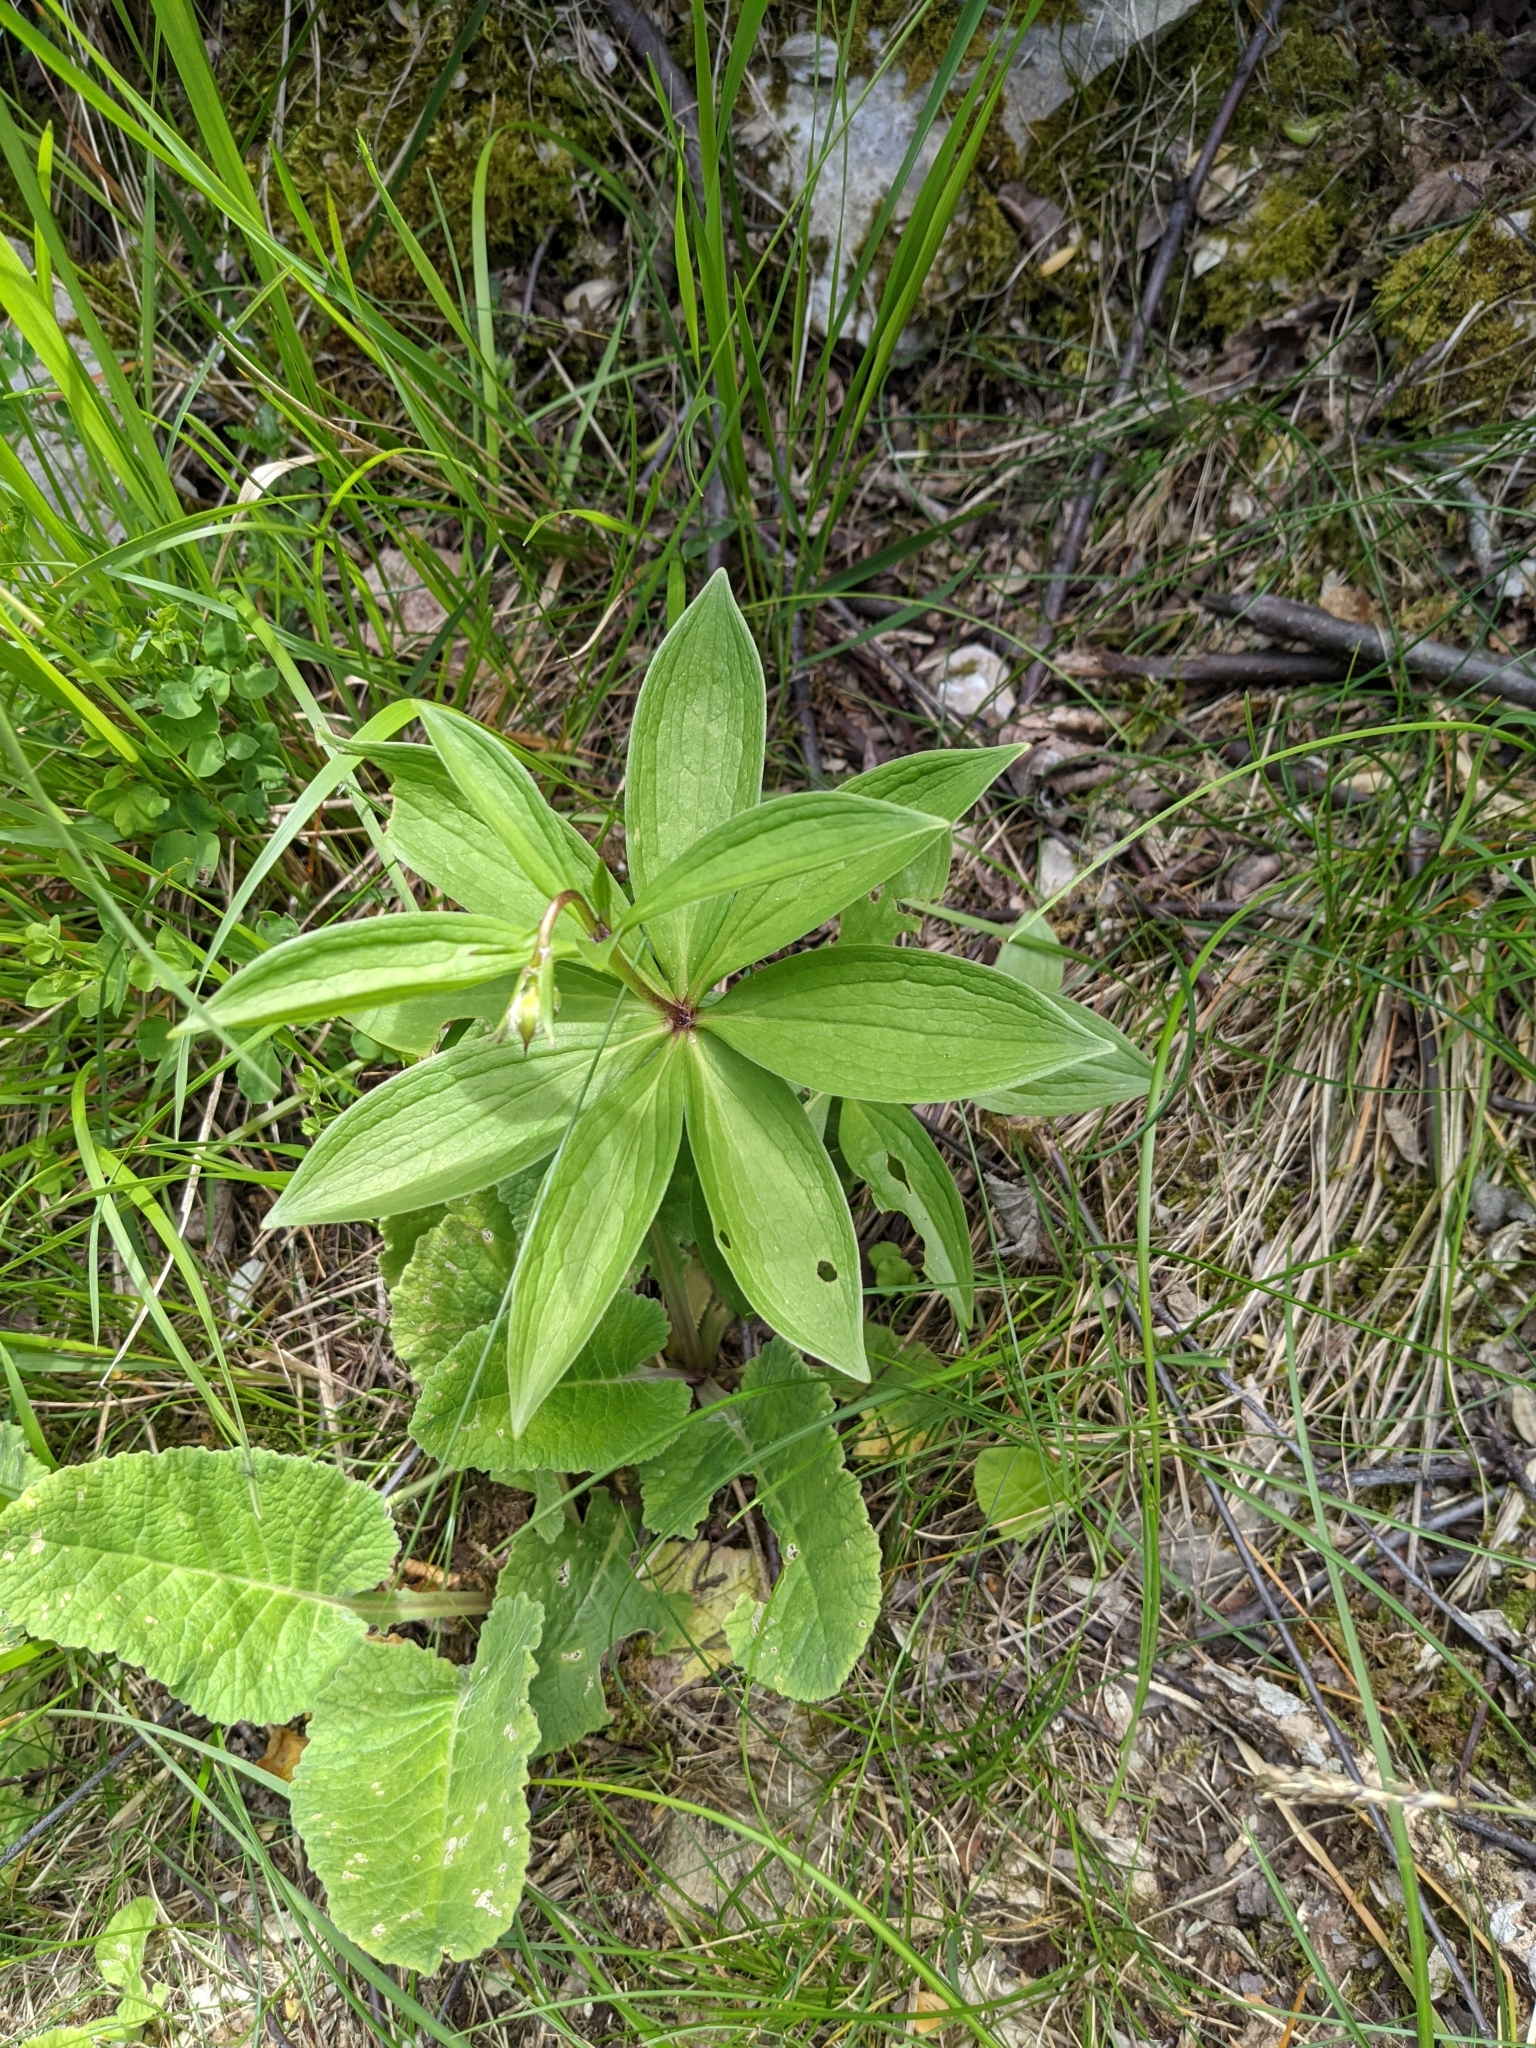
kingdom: Plantae
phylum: Tracheophyta
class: Liliopsida
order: Liliales
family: Liliaceae
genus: Lilium
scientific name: Lilium martagon
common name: Martagon lily
